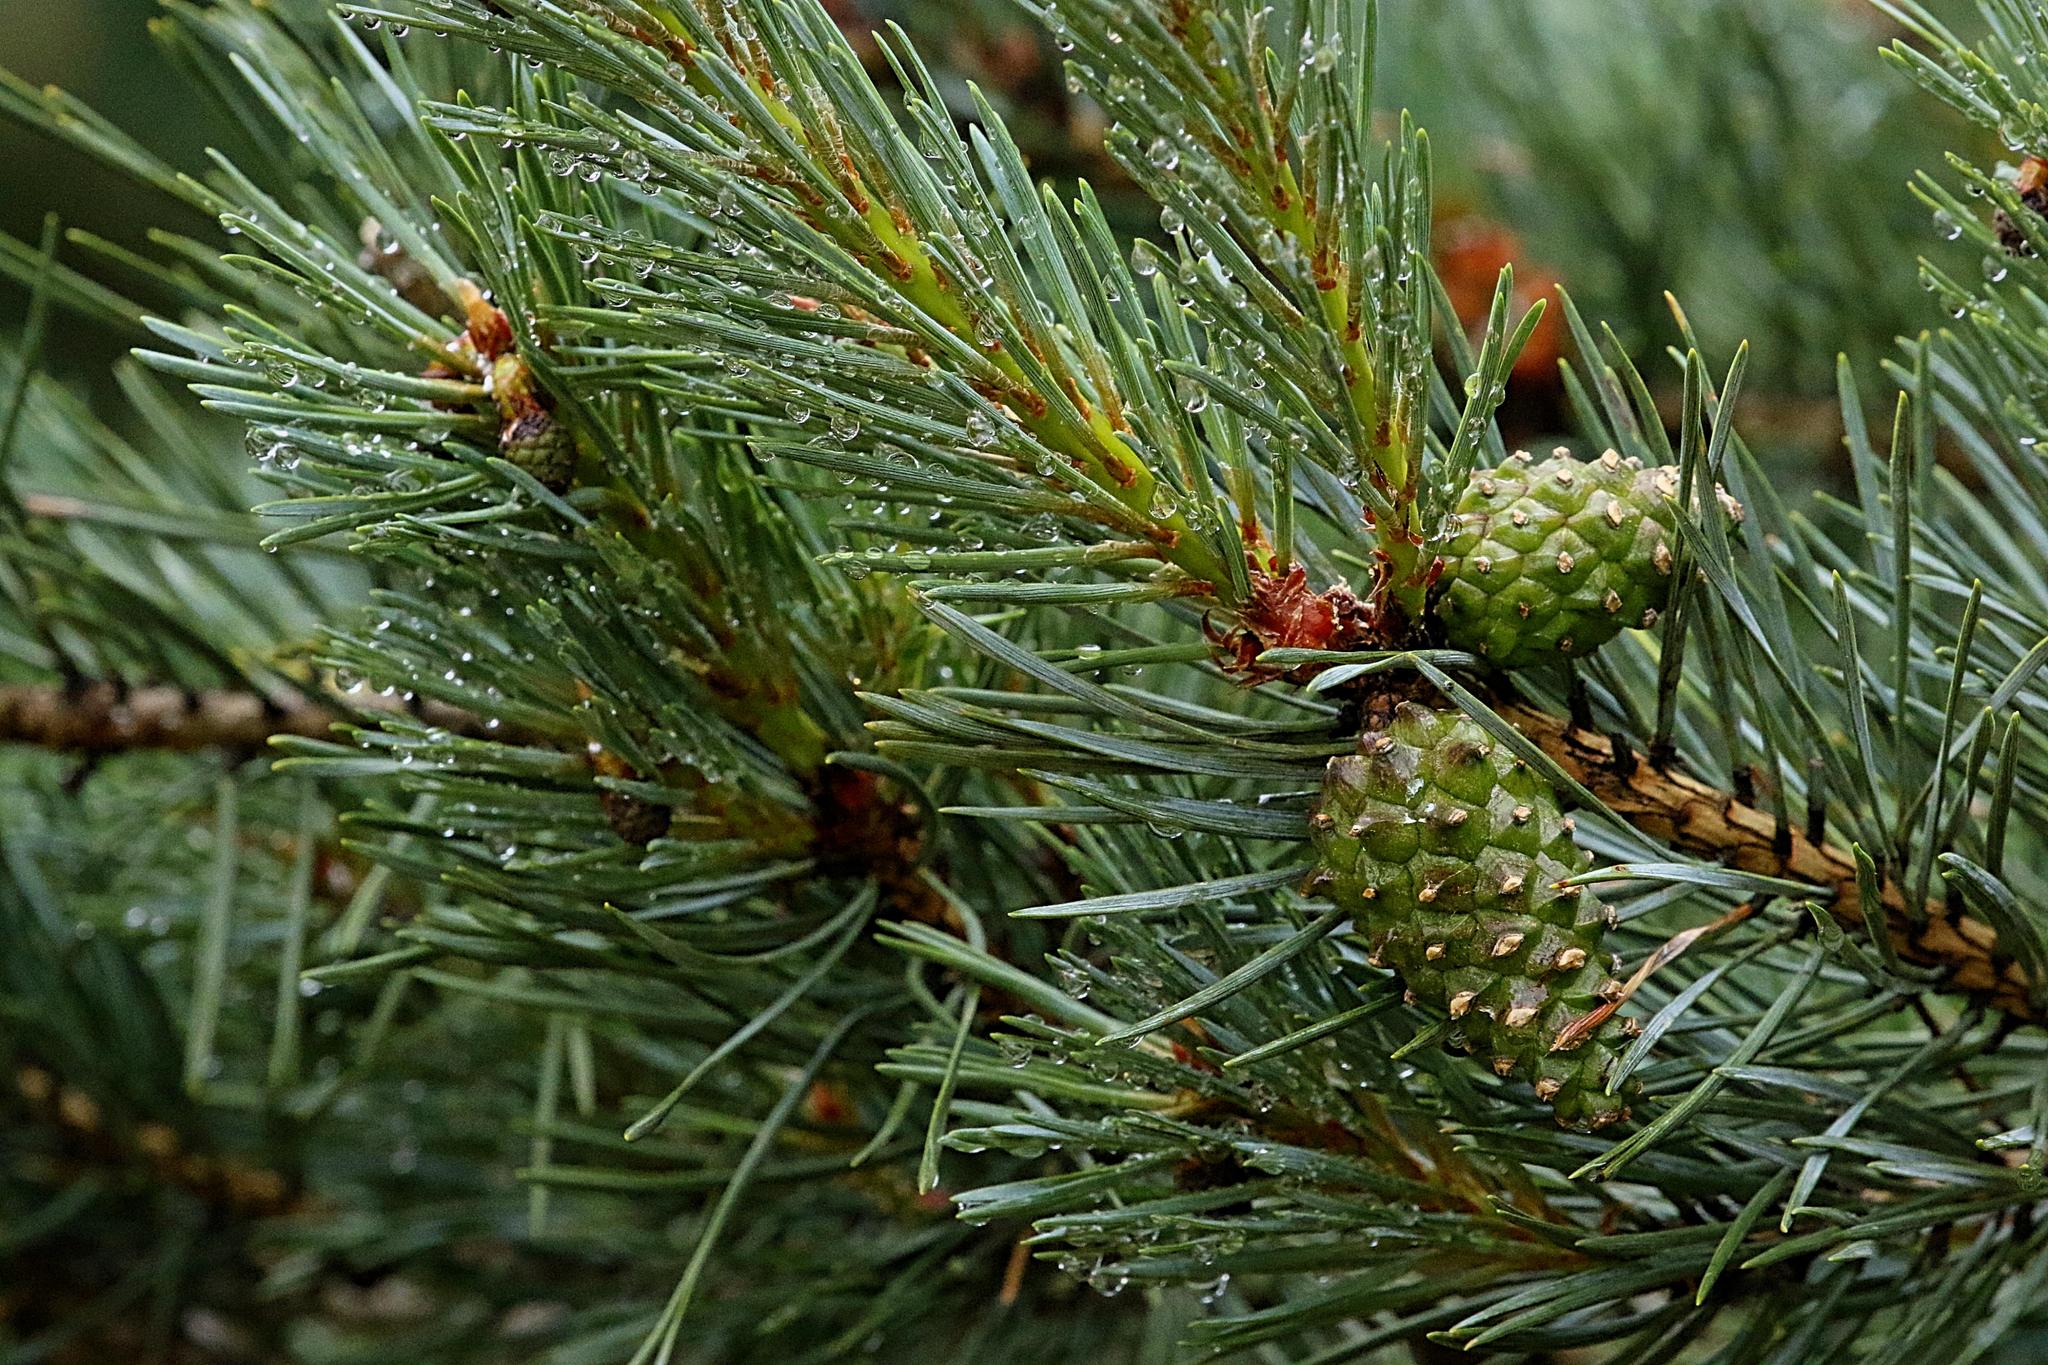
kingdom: Plantae
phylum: Tracheophyta
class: Pinopsida
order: Pinales
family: Pinaceae
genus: Pinus
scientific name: Pinus sylvestris
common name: Scots pine
